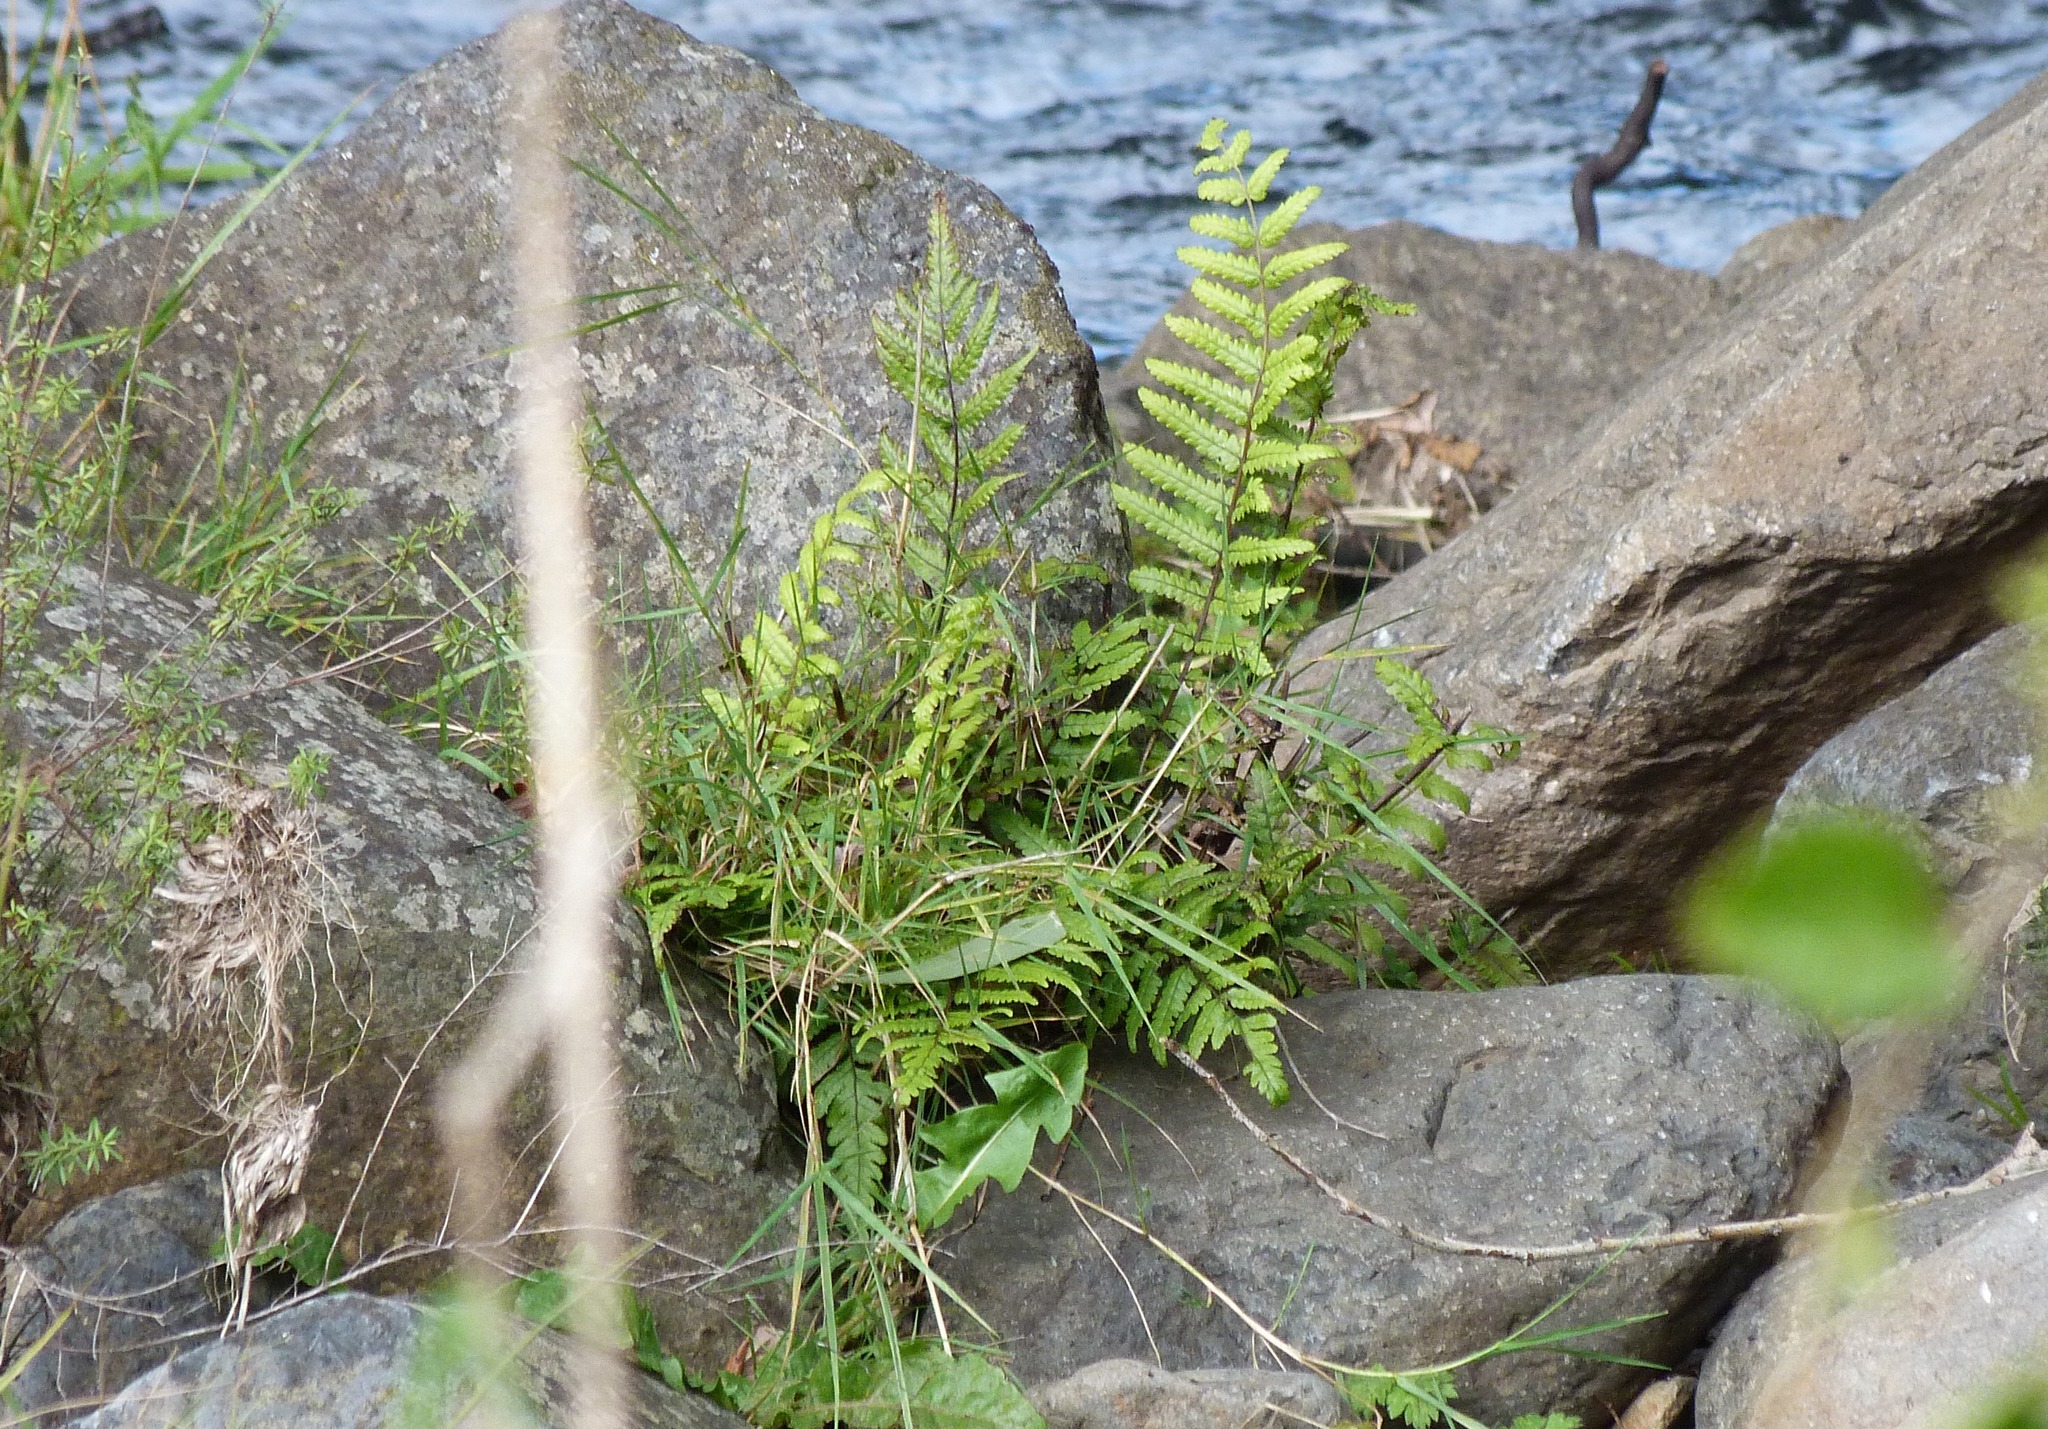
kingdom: Plantae
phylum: Tracheophyta
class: Polypodiopsida
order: Polypodiales
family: Thelypteridaceae
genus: Pakau
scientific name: Pakau pennigera
